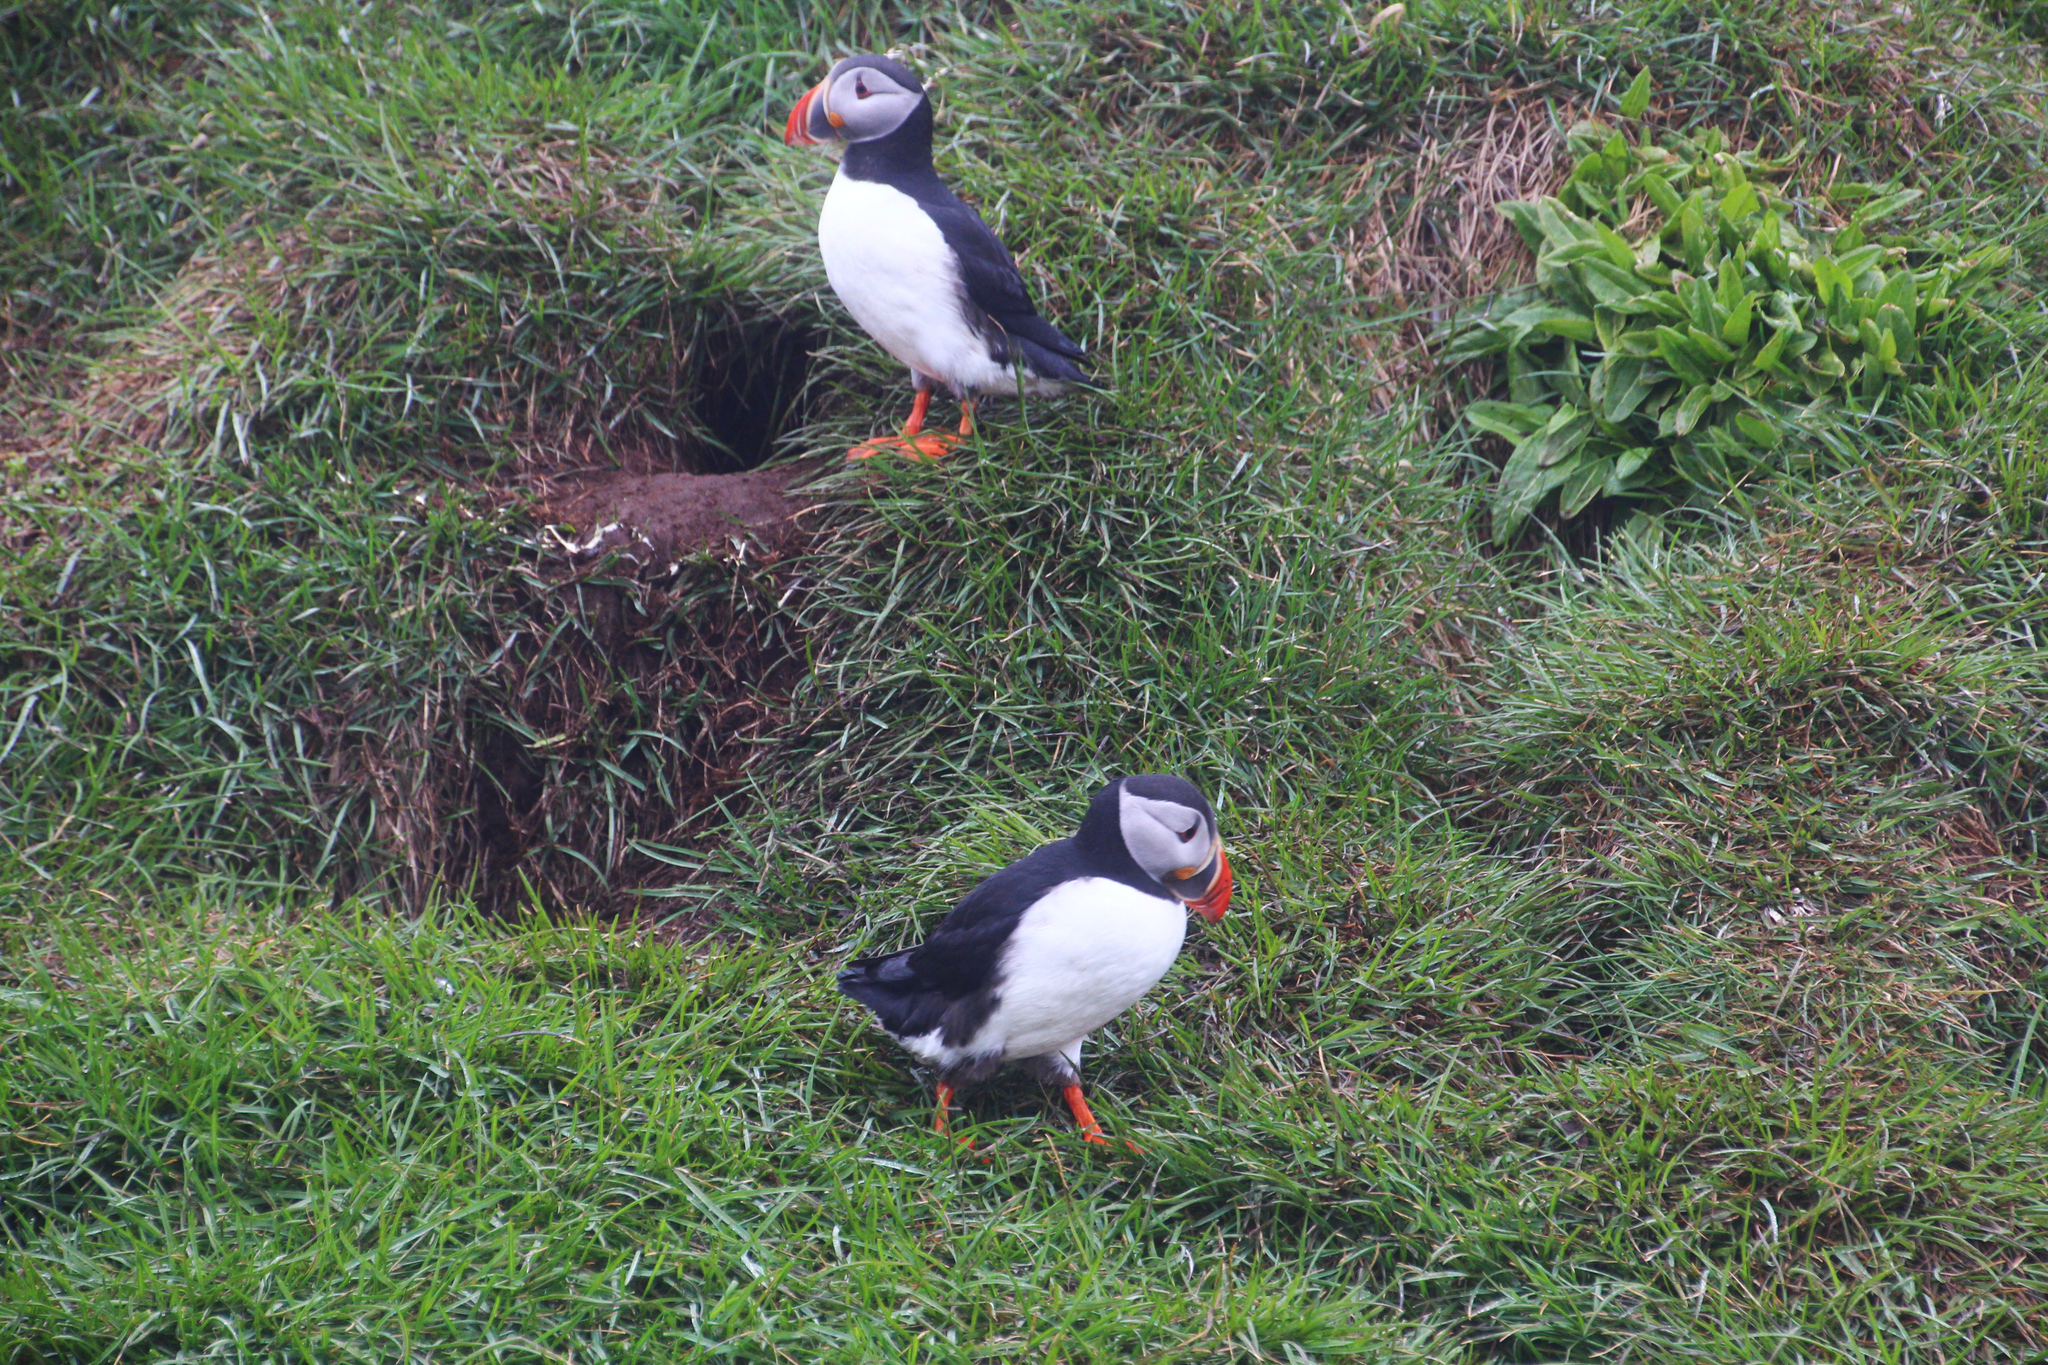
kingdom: Animalia
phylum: Chordata
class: Aves
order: Charadriiformes
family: Alcidae
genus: Fratercula
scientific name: Fratercula arctica
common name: Atlantic puffin
